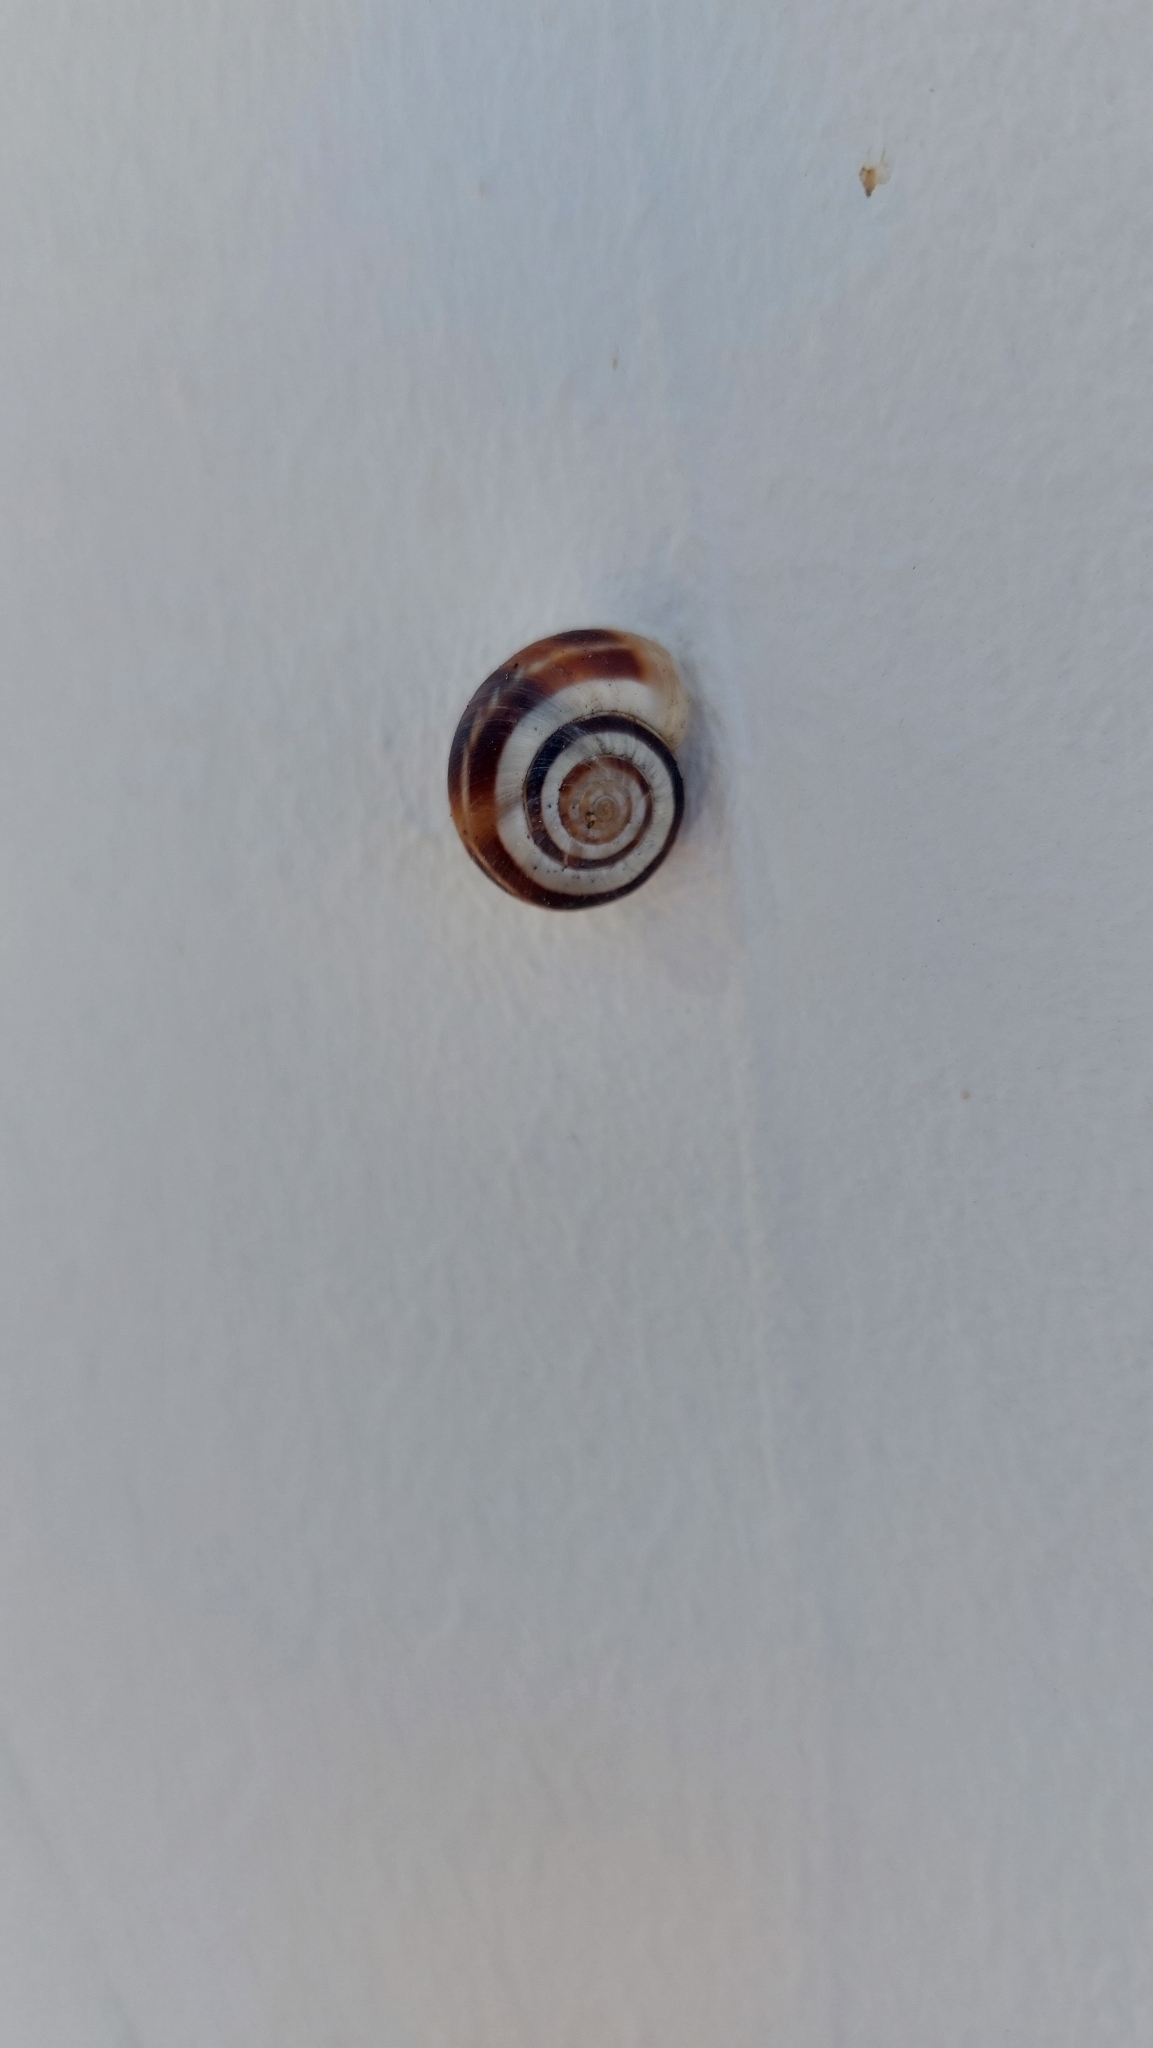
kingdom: Animalia
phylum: Mollusca
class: Gastropoda
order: Stylommatophora
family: Geomitridae
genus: Xerolenta
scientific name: Xerolenta obvia
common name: White heath snail
